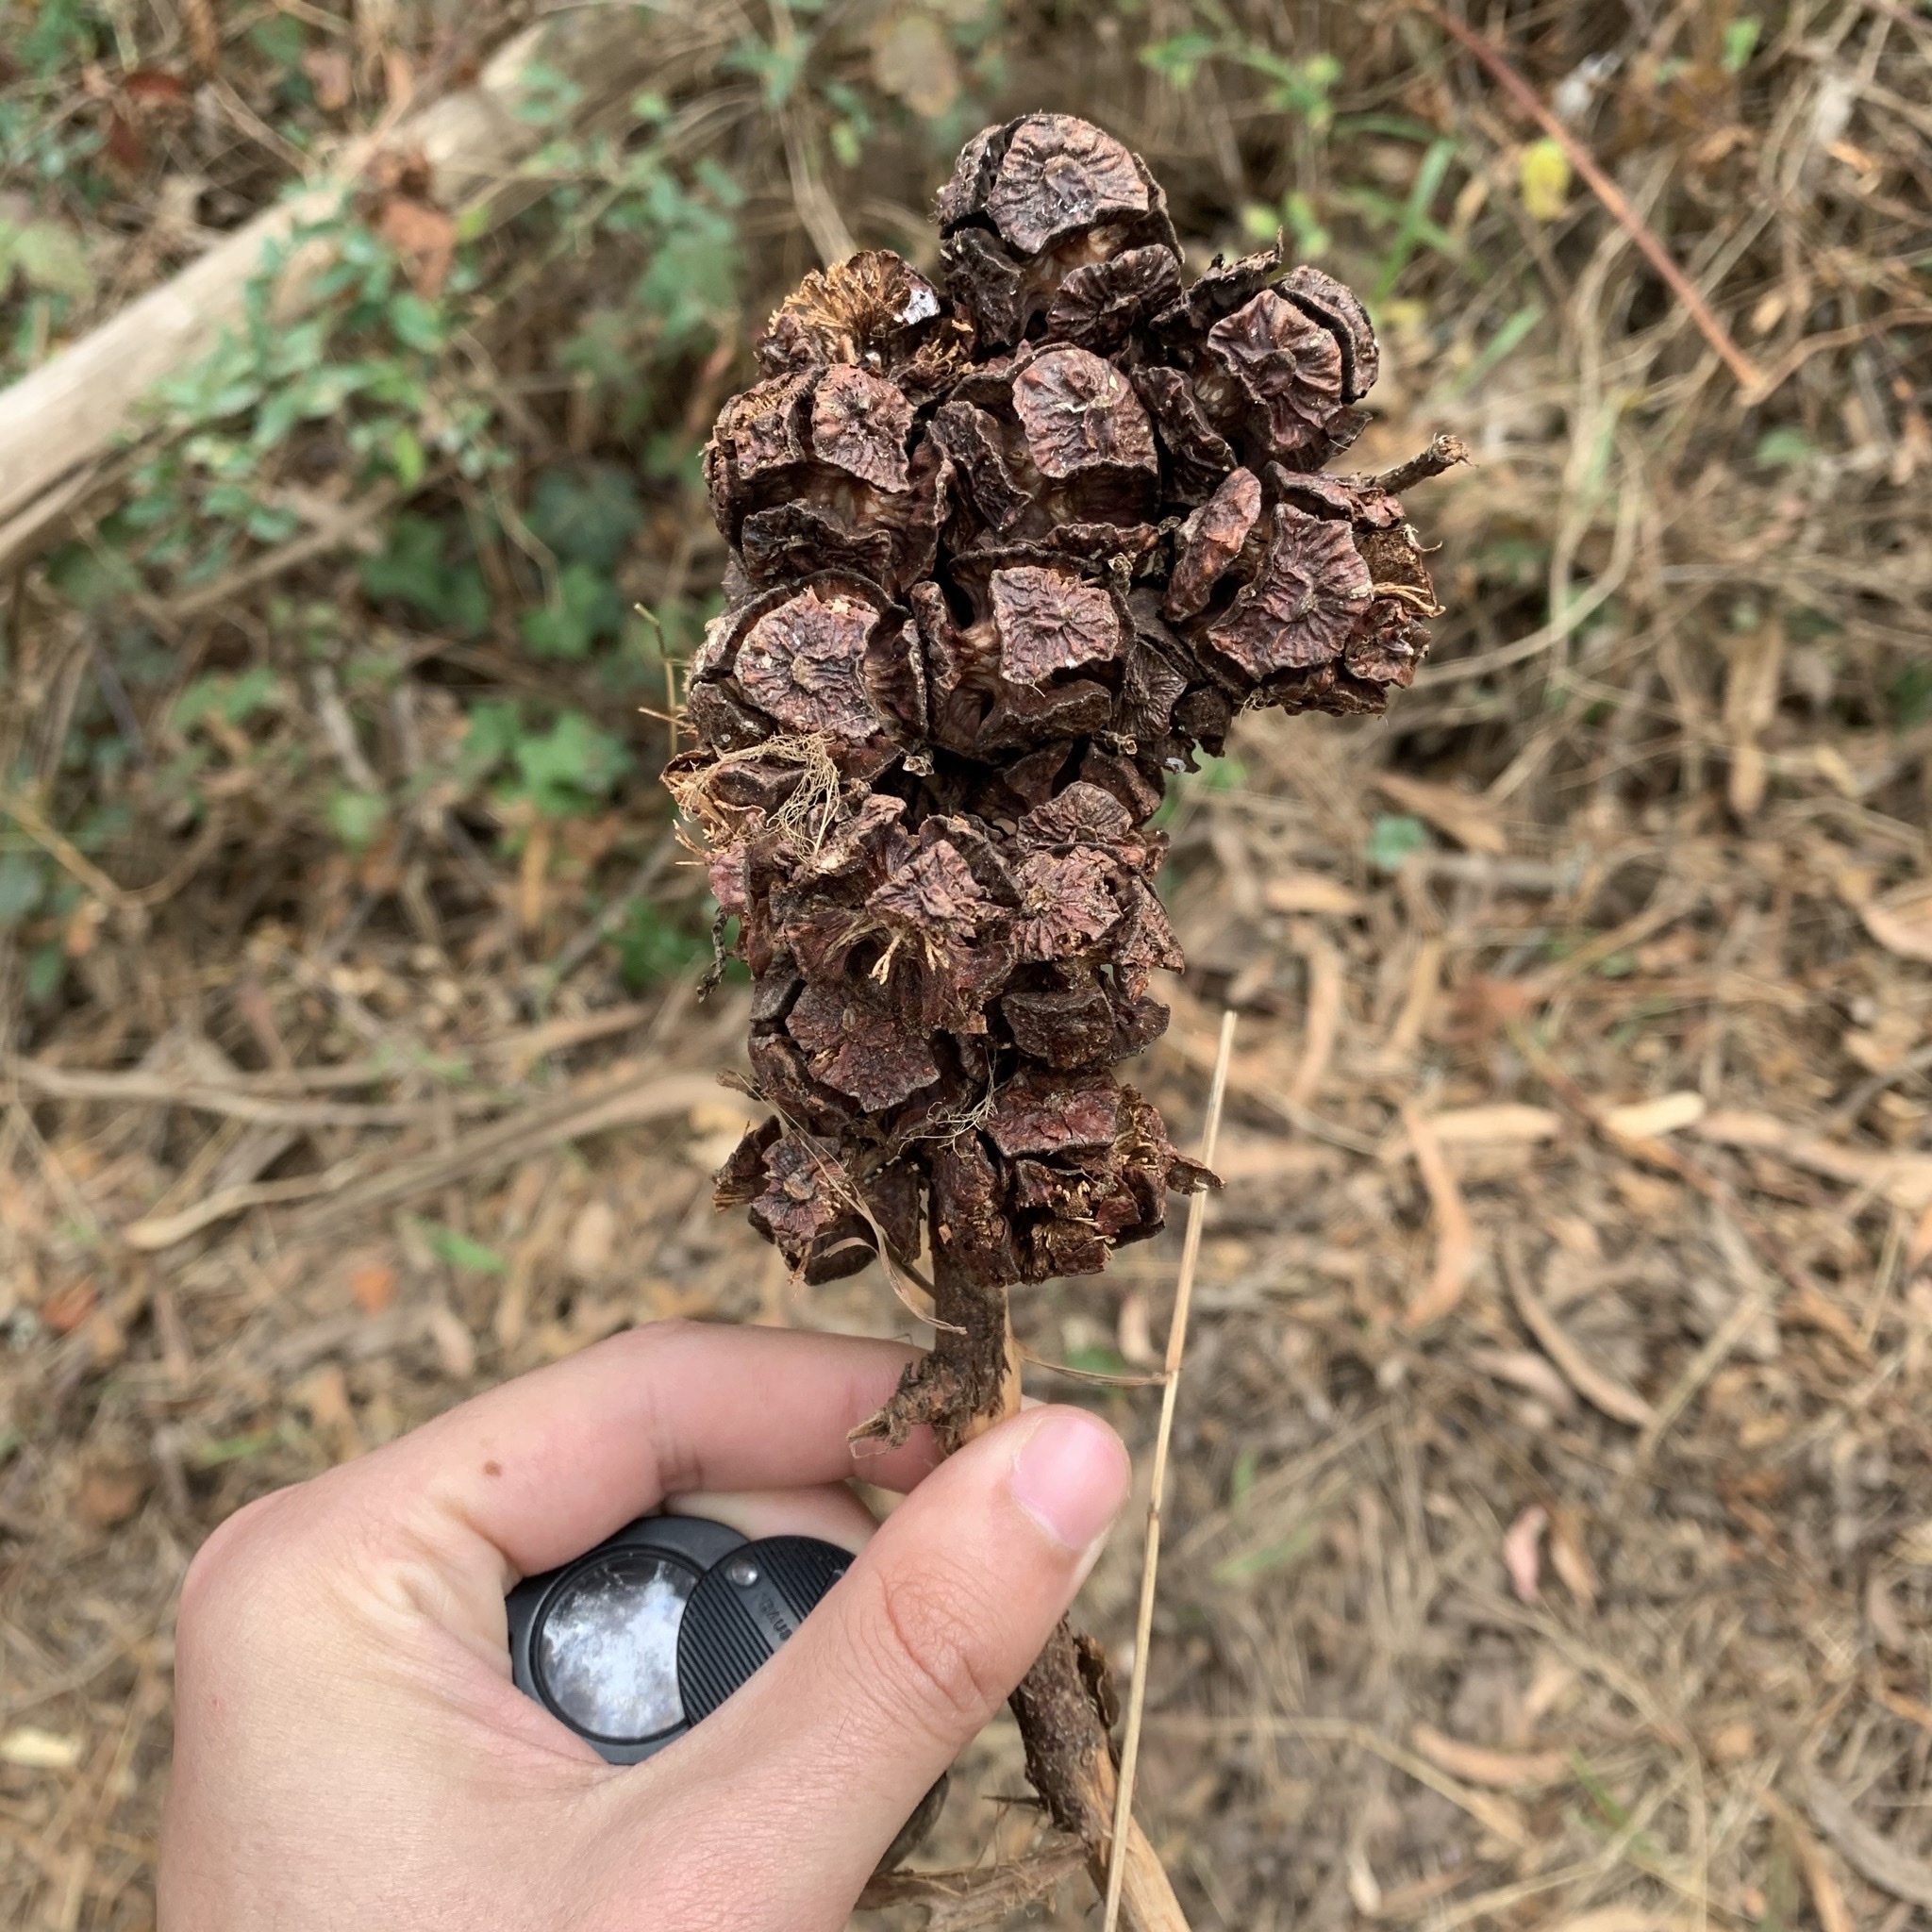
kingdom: Plantae
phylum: Tracheophyta
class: Pinopsida
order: Pinales
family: Cupressaceae
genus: Cupressus
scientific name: Cupressus macrocarpa
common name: Monterey cypress
